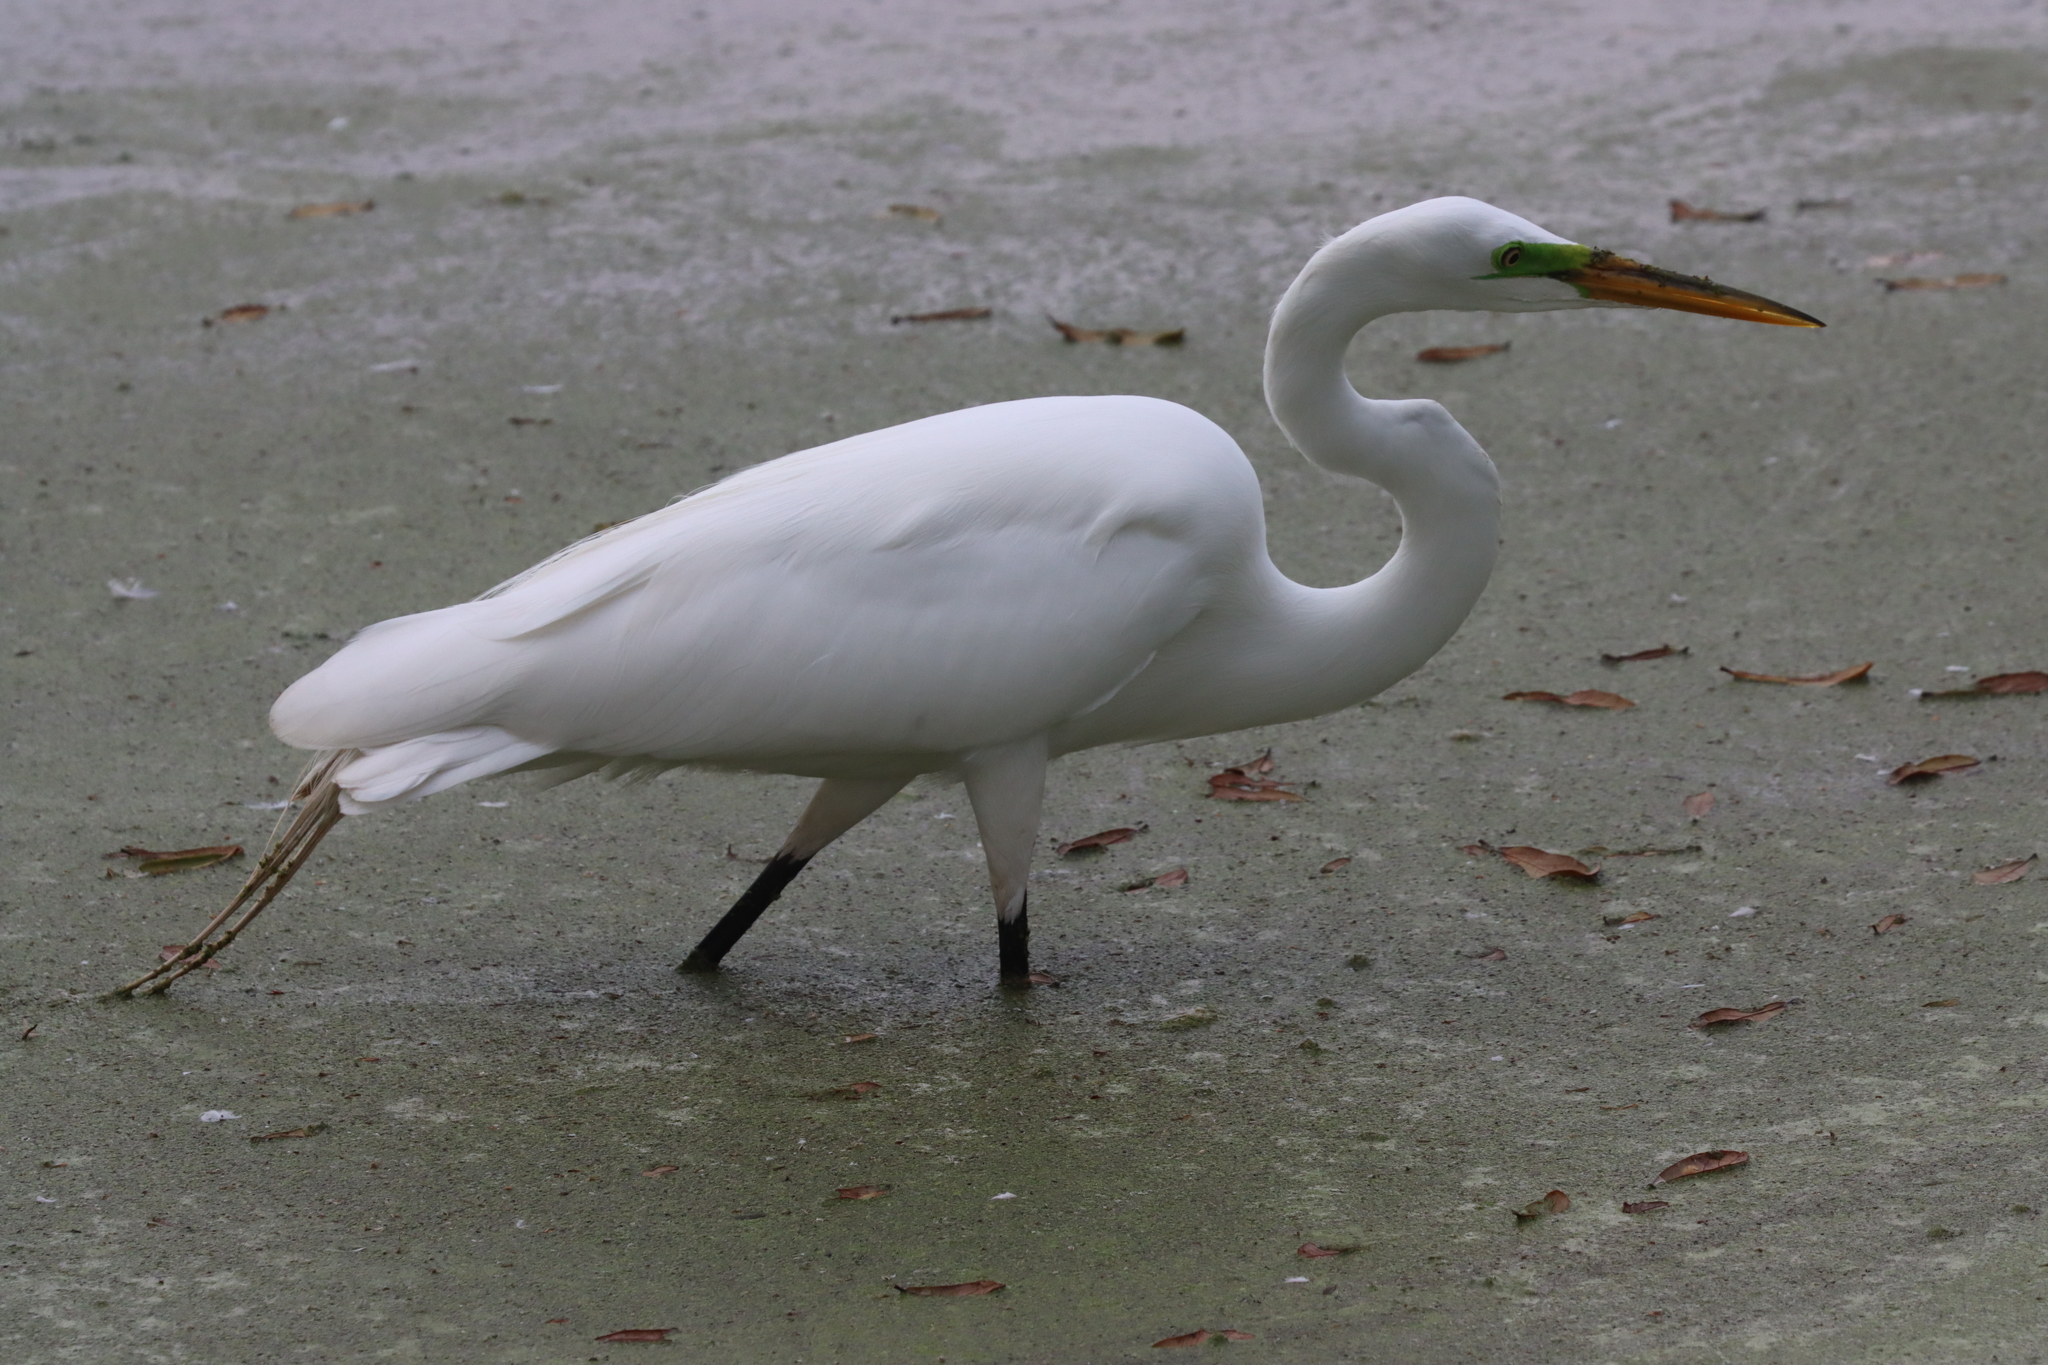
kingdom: Animalia
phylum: Chordata
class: Aves
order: Pelecaniformes
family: Ardeidae
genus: Ardea
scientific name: Ardea alba
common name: Great egret
